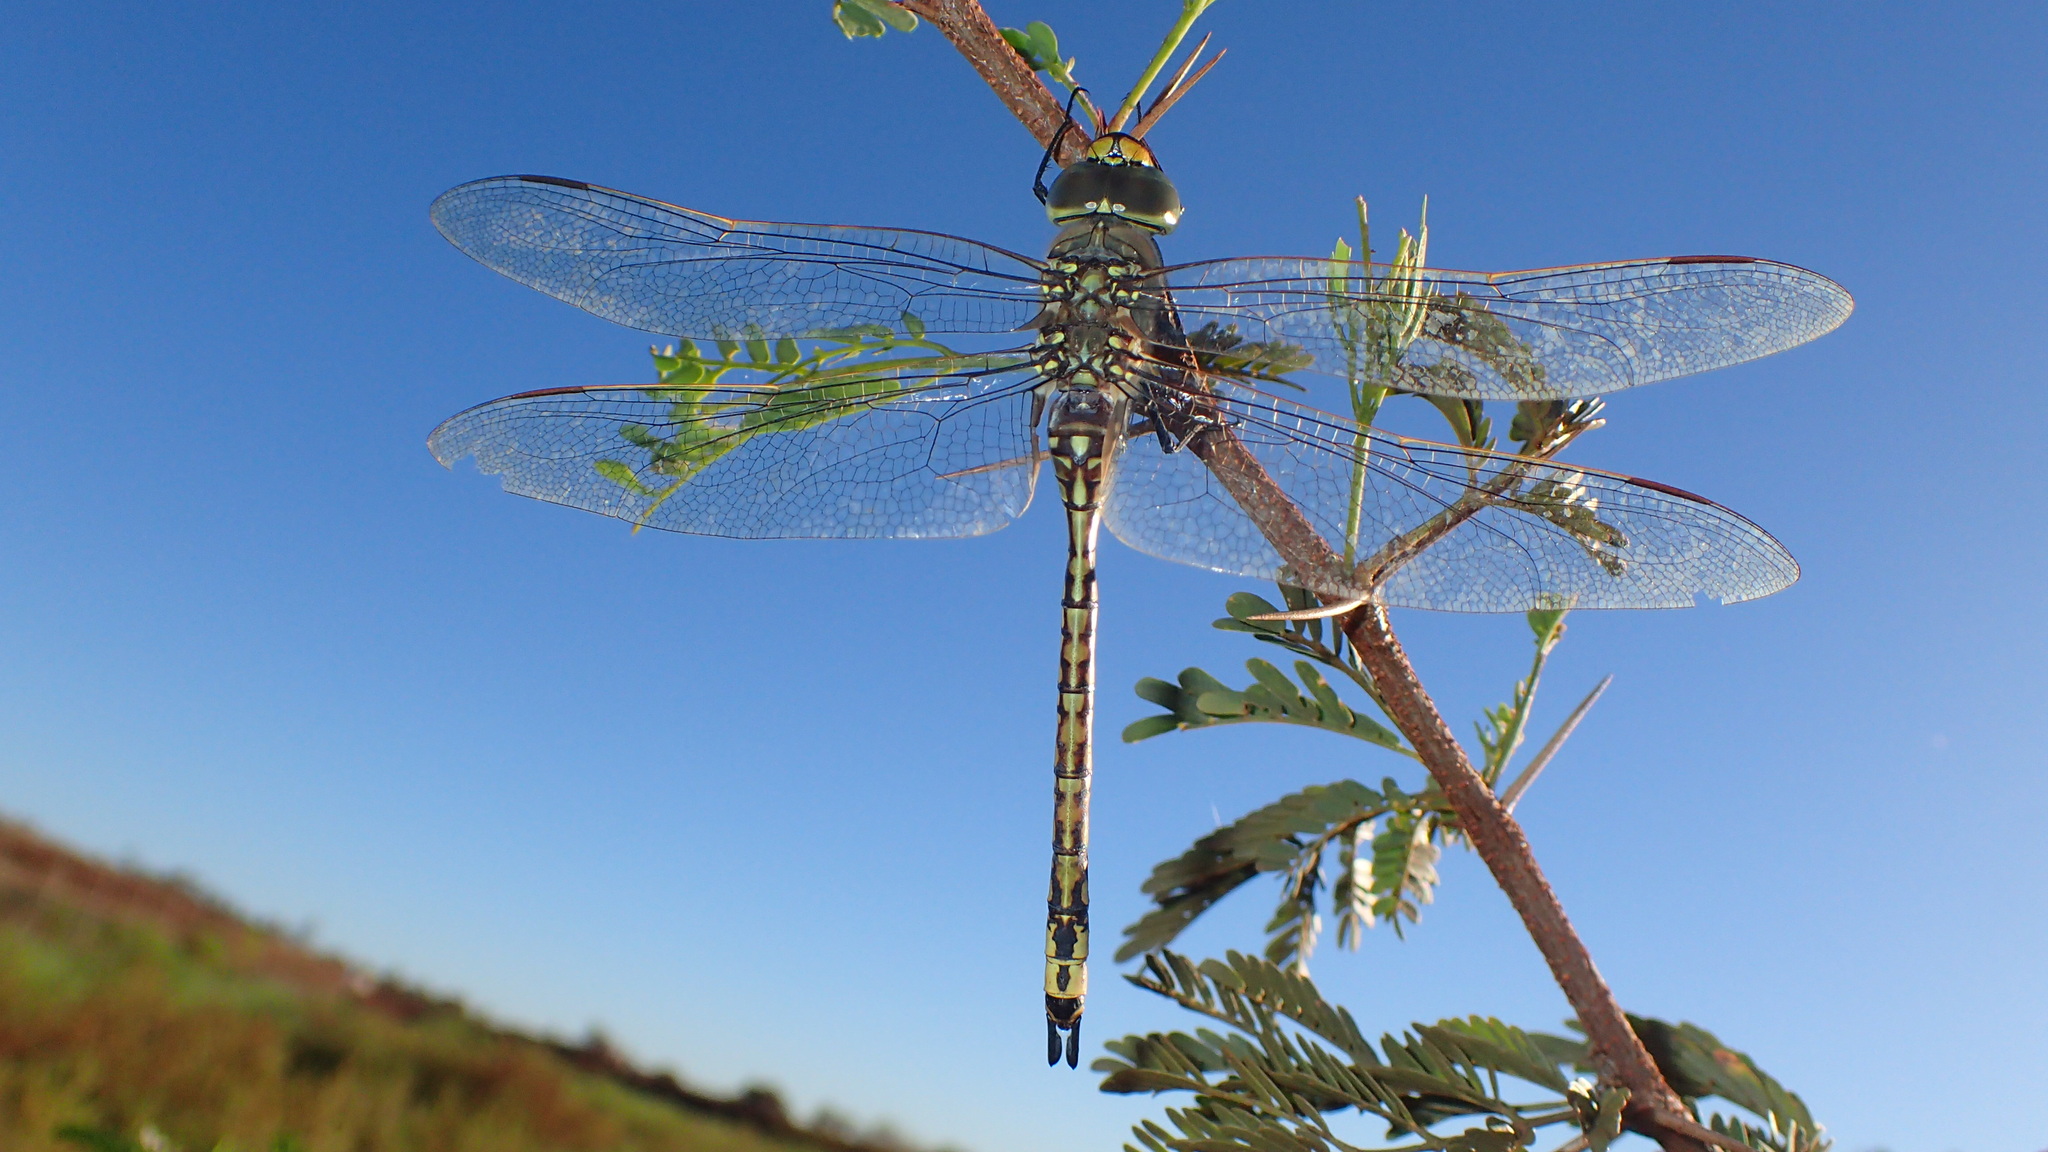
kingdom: Animalia
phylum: Arthropoda
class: Insecta
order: Odonata
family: Aeshnidae
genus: Anax
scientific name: Anax papuensis
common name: Australian emperor
